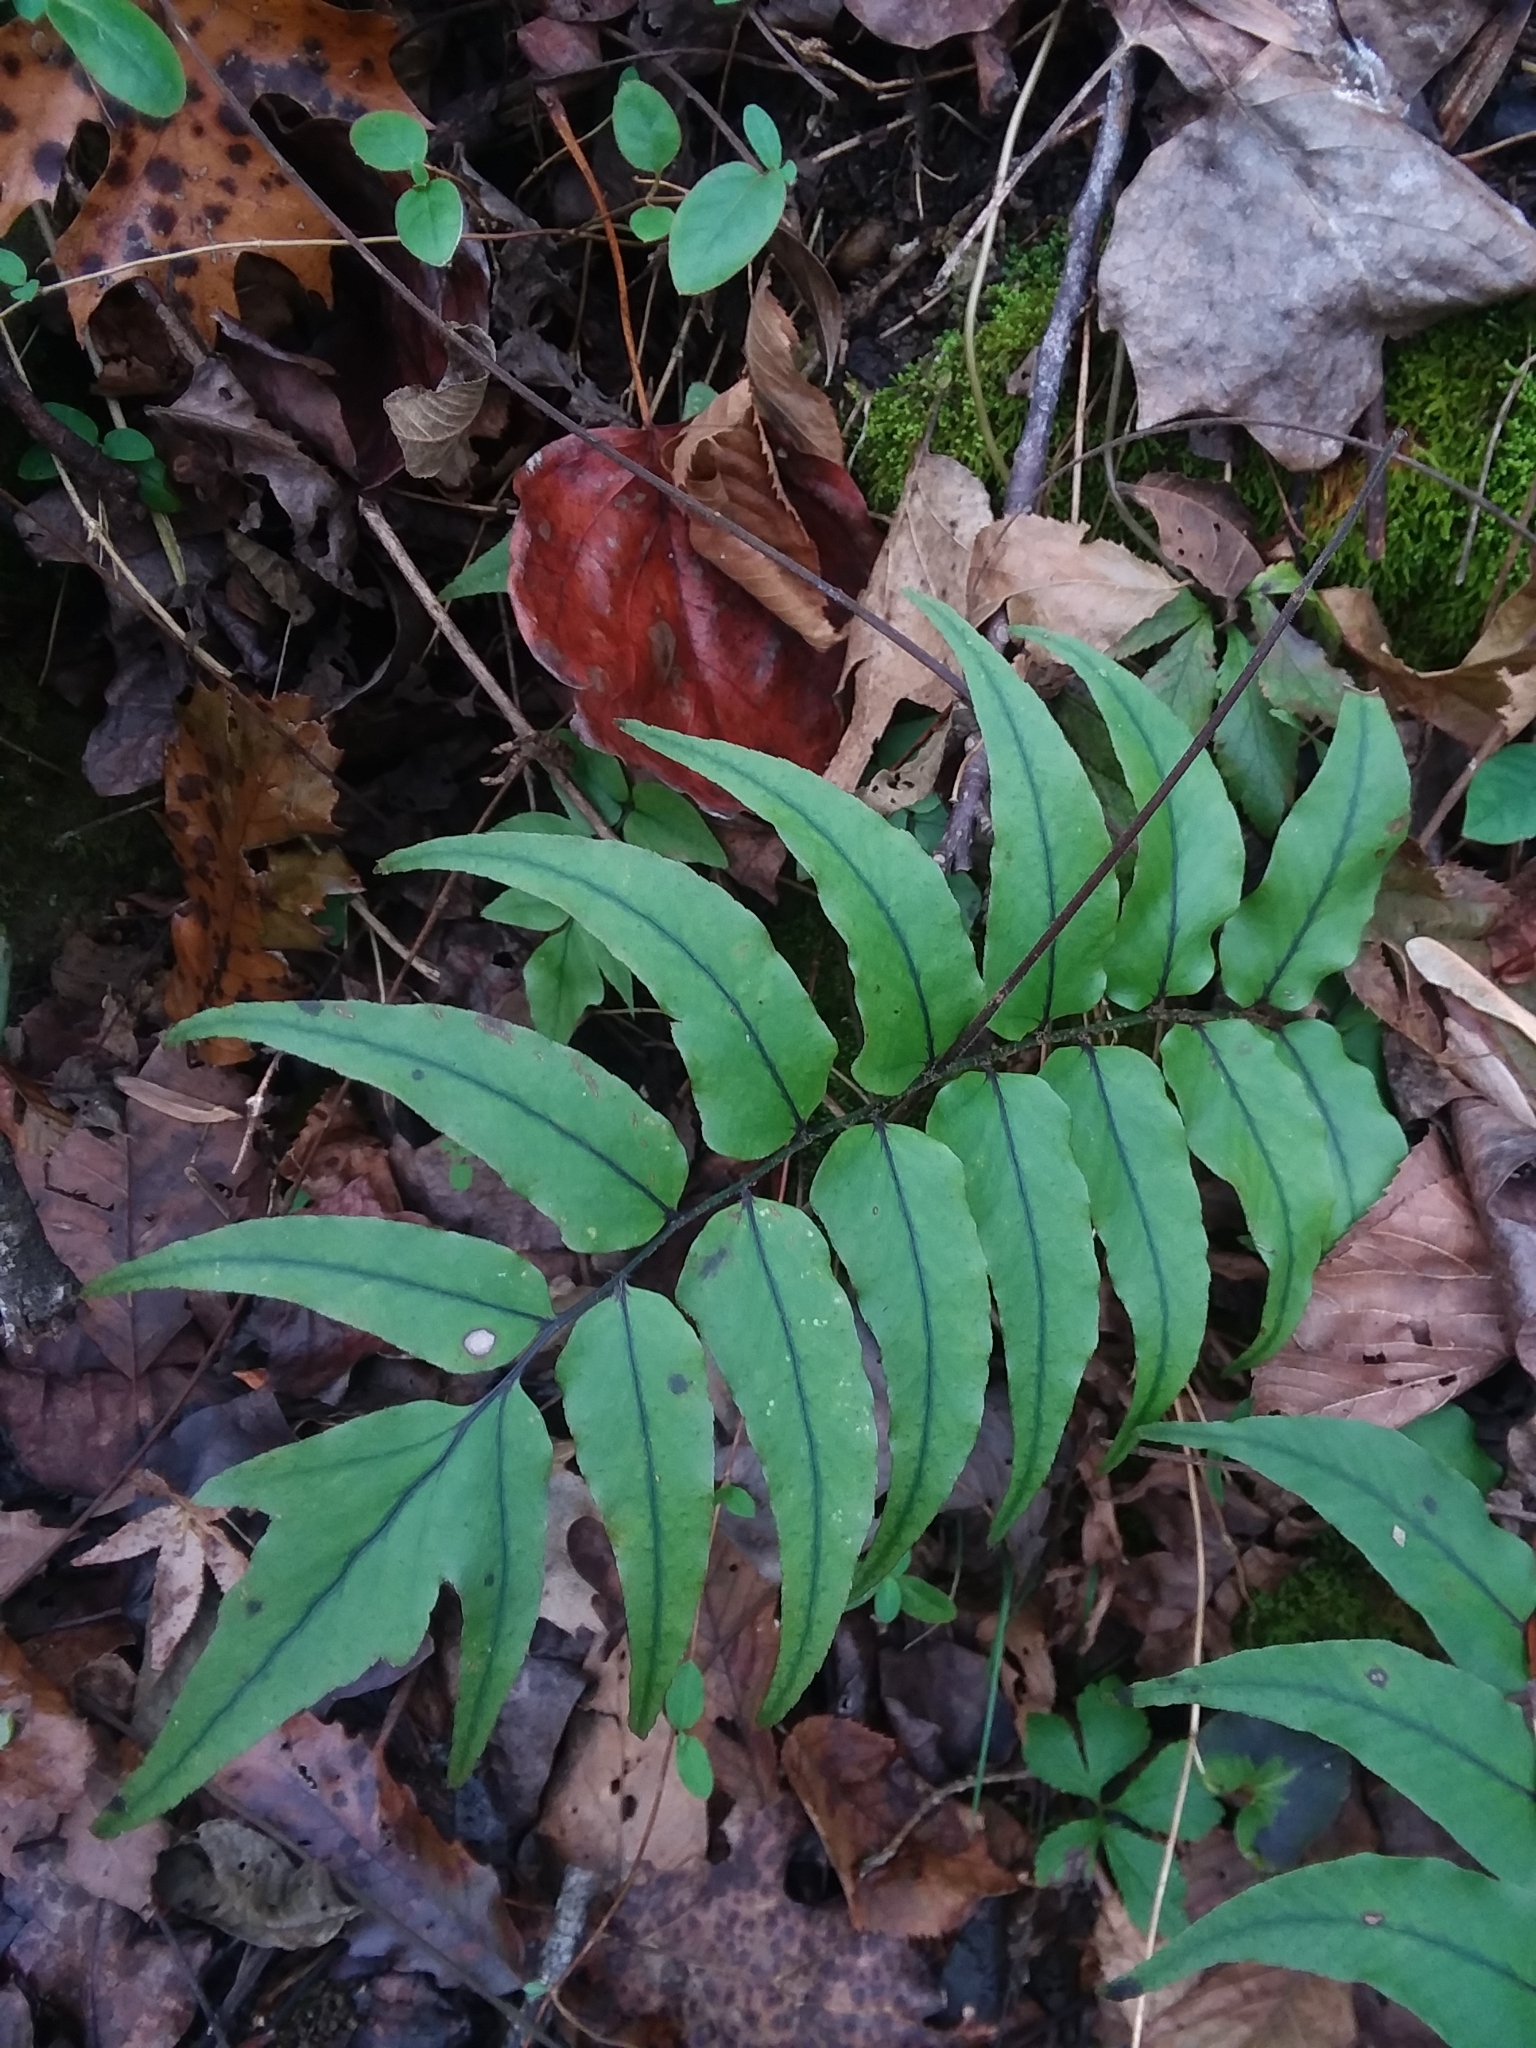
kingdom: Plantae
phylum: Tracheophyta
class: Polypodiopsida
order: Polypodiales
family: Dryopteridaceae
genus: Cyrtomium
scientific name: Cyrtomium fortunei
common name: Asian netvein hollyfern
